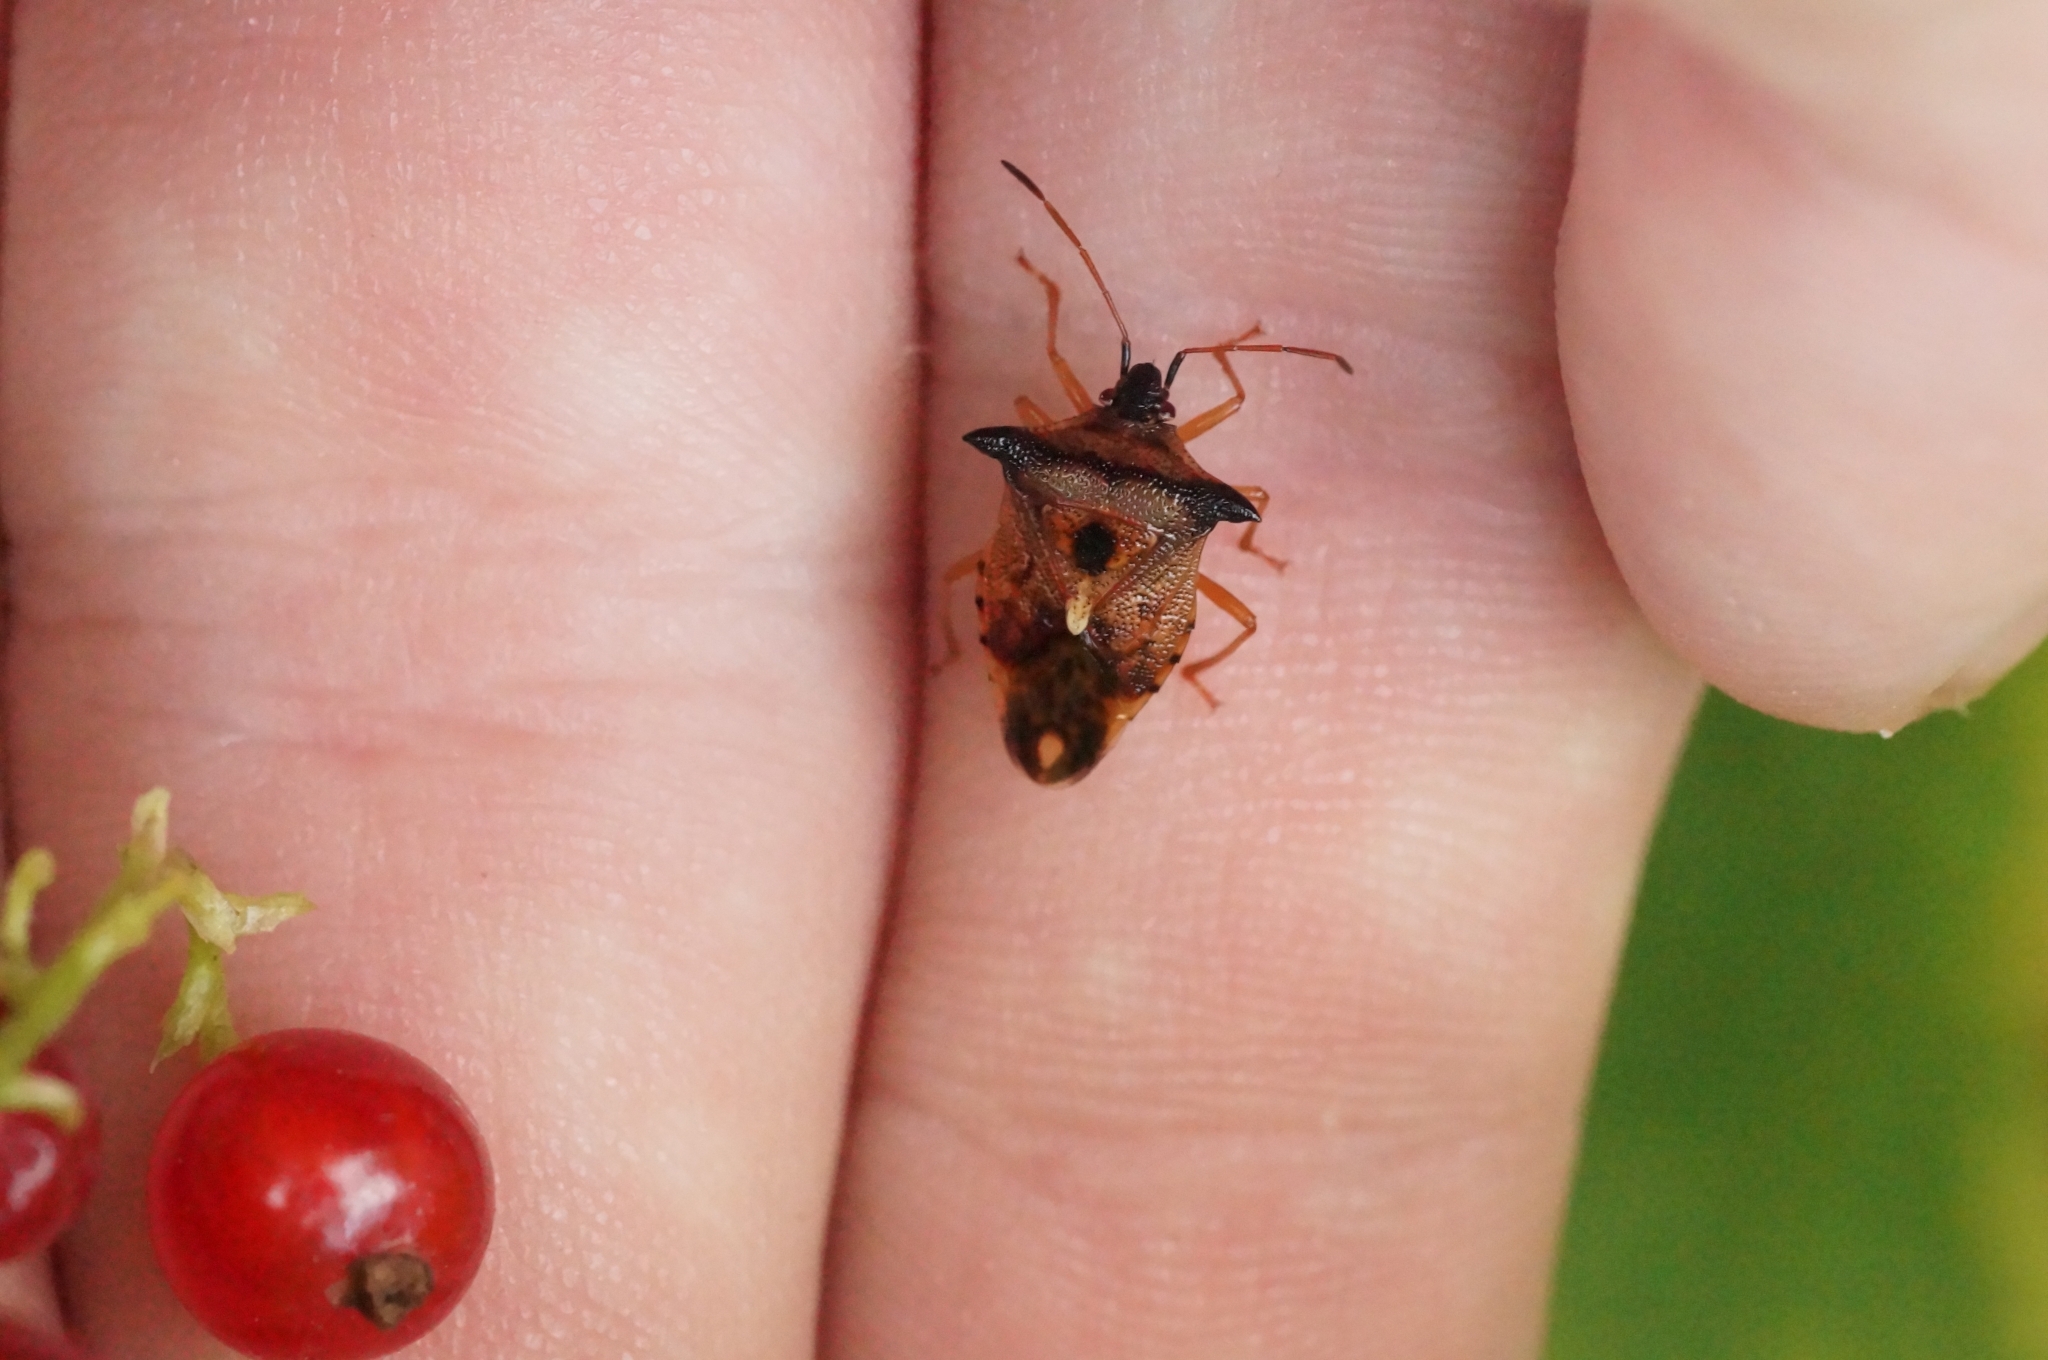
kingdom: Animalia
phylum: Arthropoda
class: Insecta
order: Hemiptera
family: Acanthosomatidae
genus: Elasmucha
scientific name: Elasmucha ferrugata
